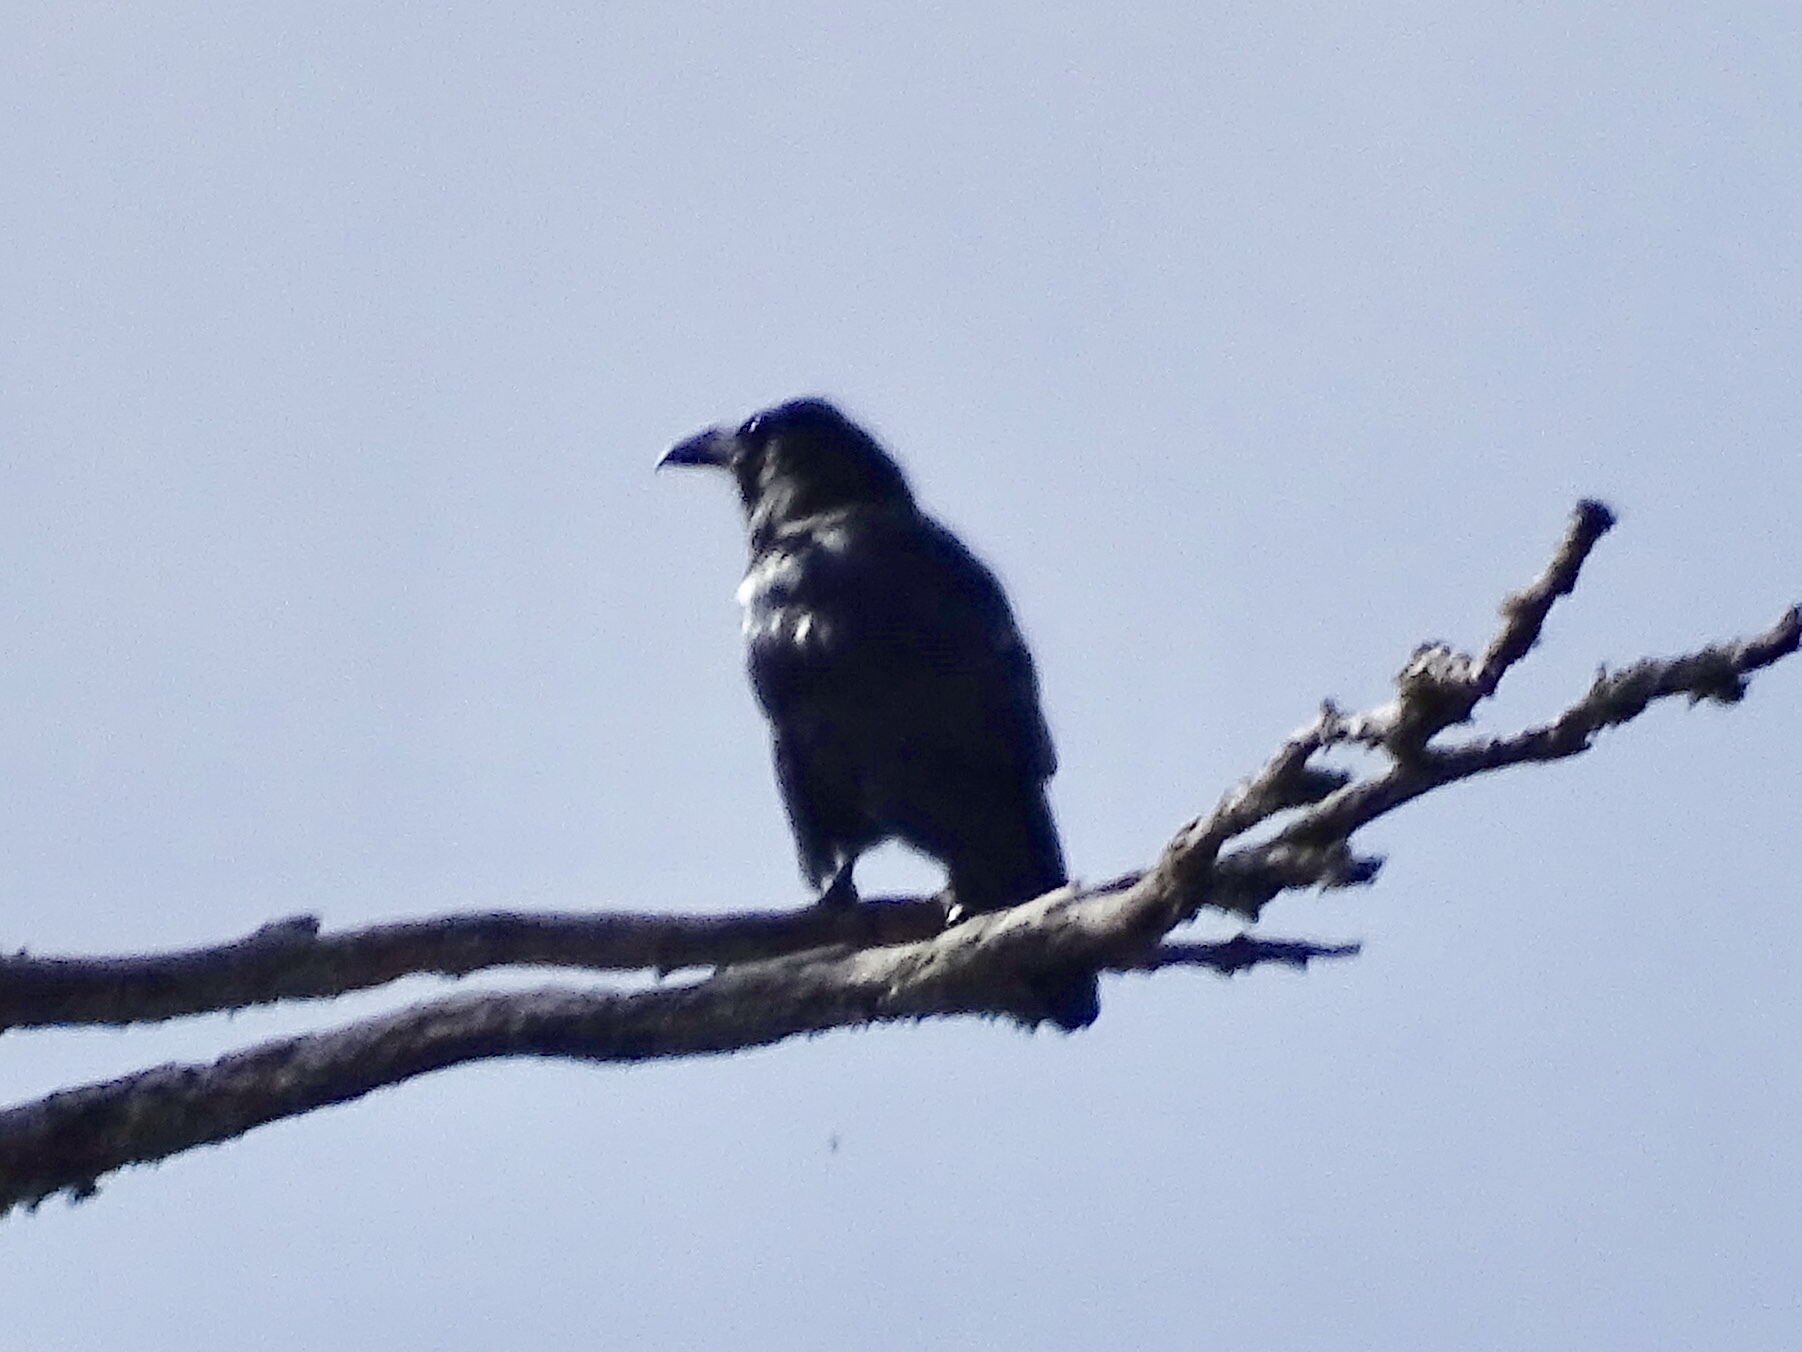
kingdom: Animalia
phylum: Chordata
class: Aves
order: Passeriformes
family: Corvidae
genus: Corvus
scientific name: Corvus corax
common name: Common raven
